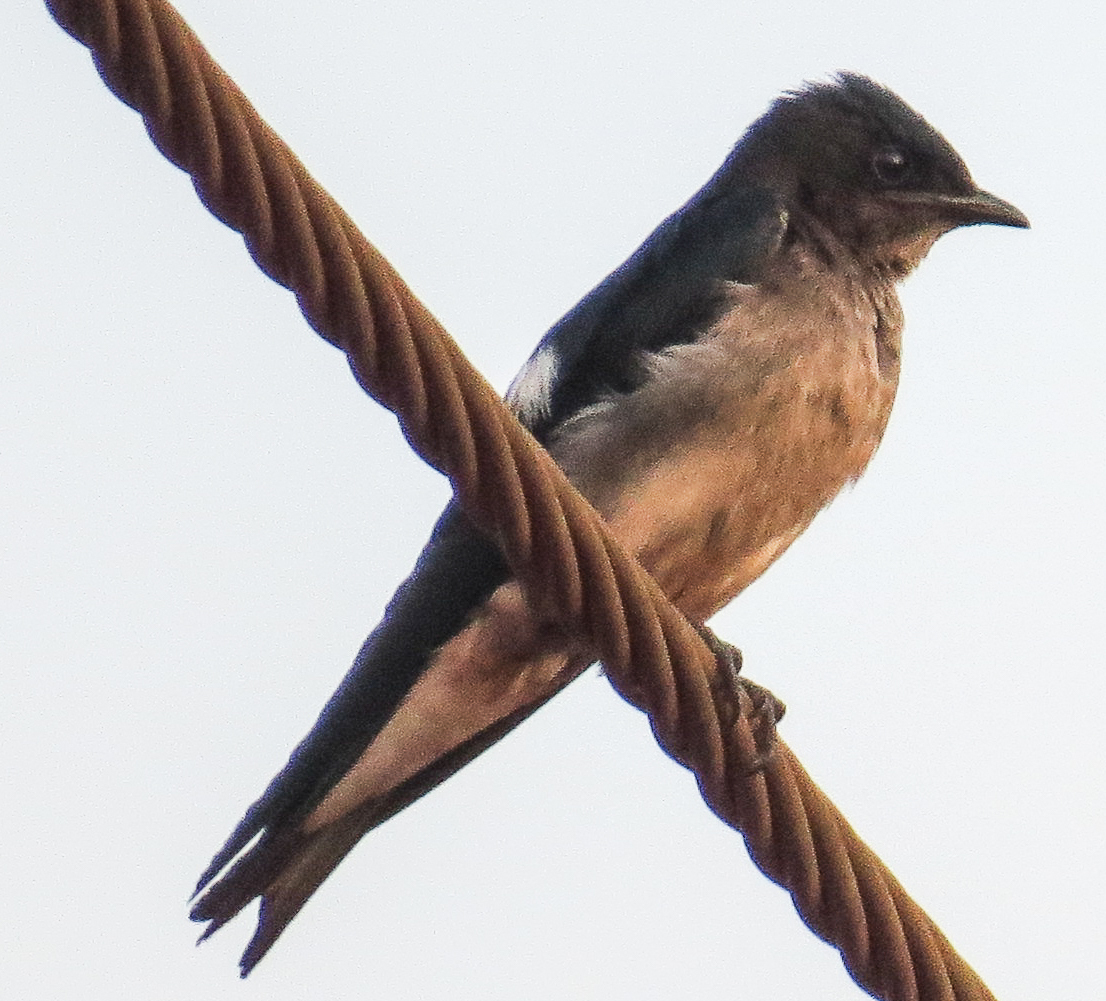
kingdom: Animalia
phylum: Chordata
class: Aves
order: Passeriformes
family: Hirundinidae
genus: Progne
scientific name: Progne chalybea
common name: Grey-breasted martin
